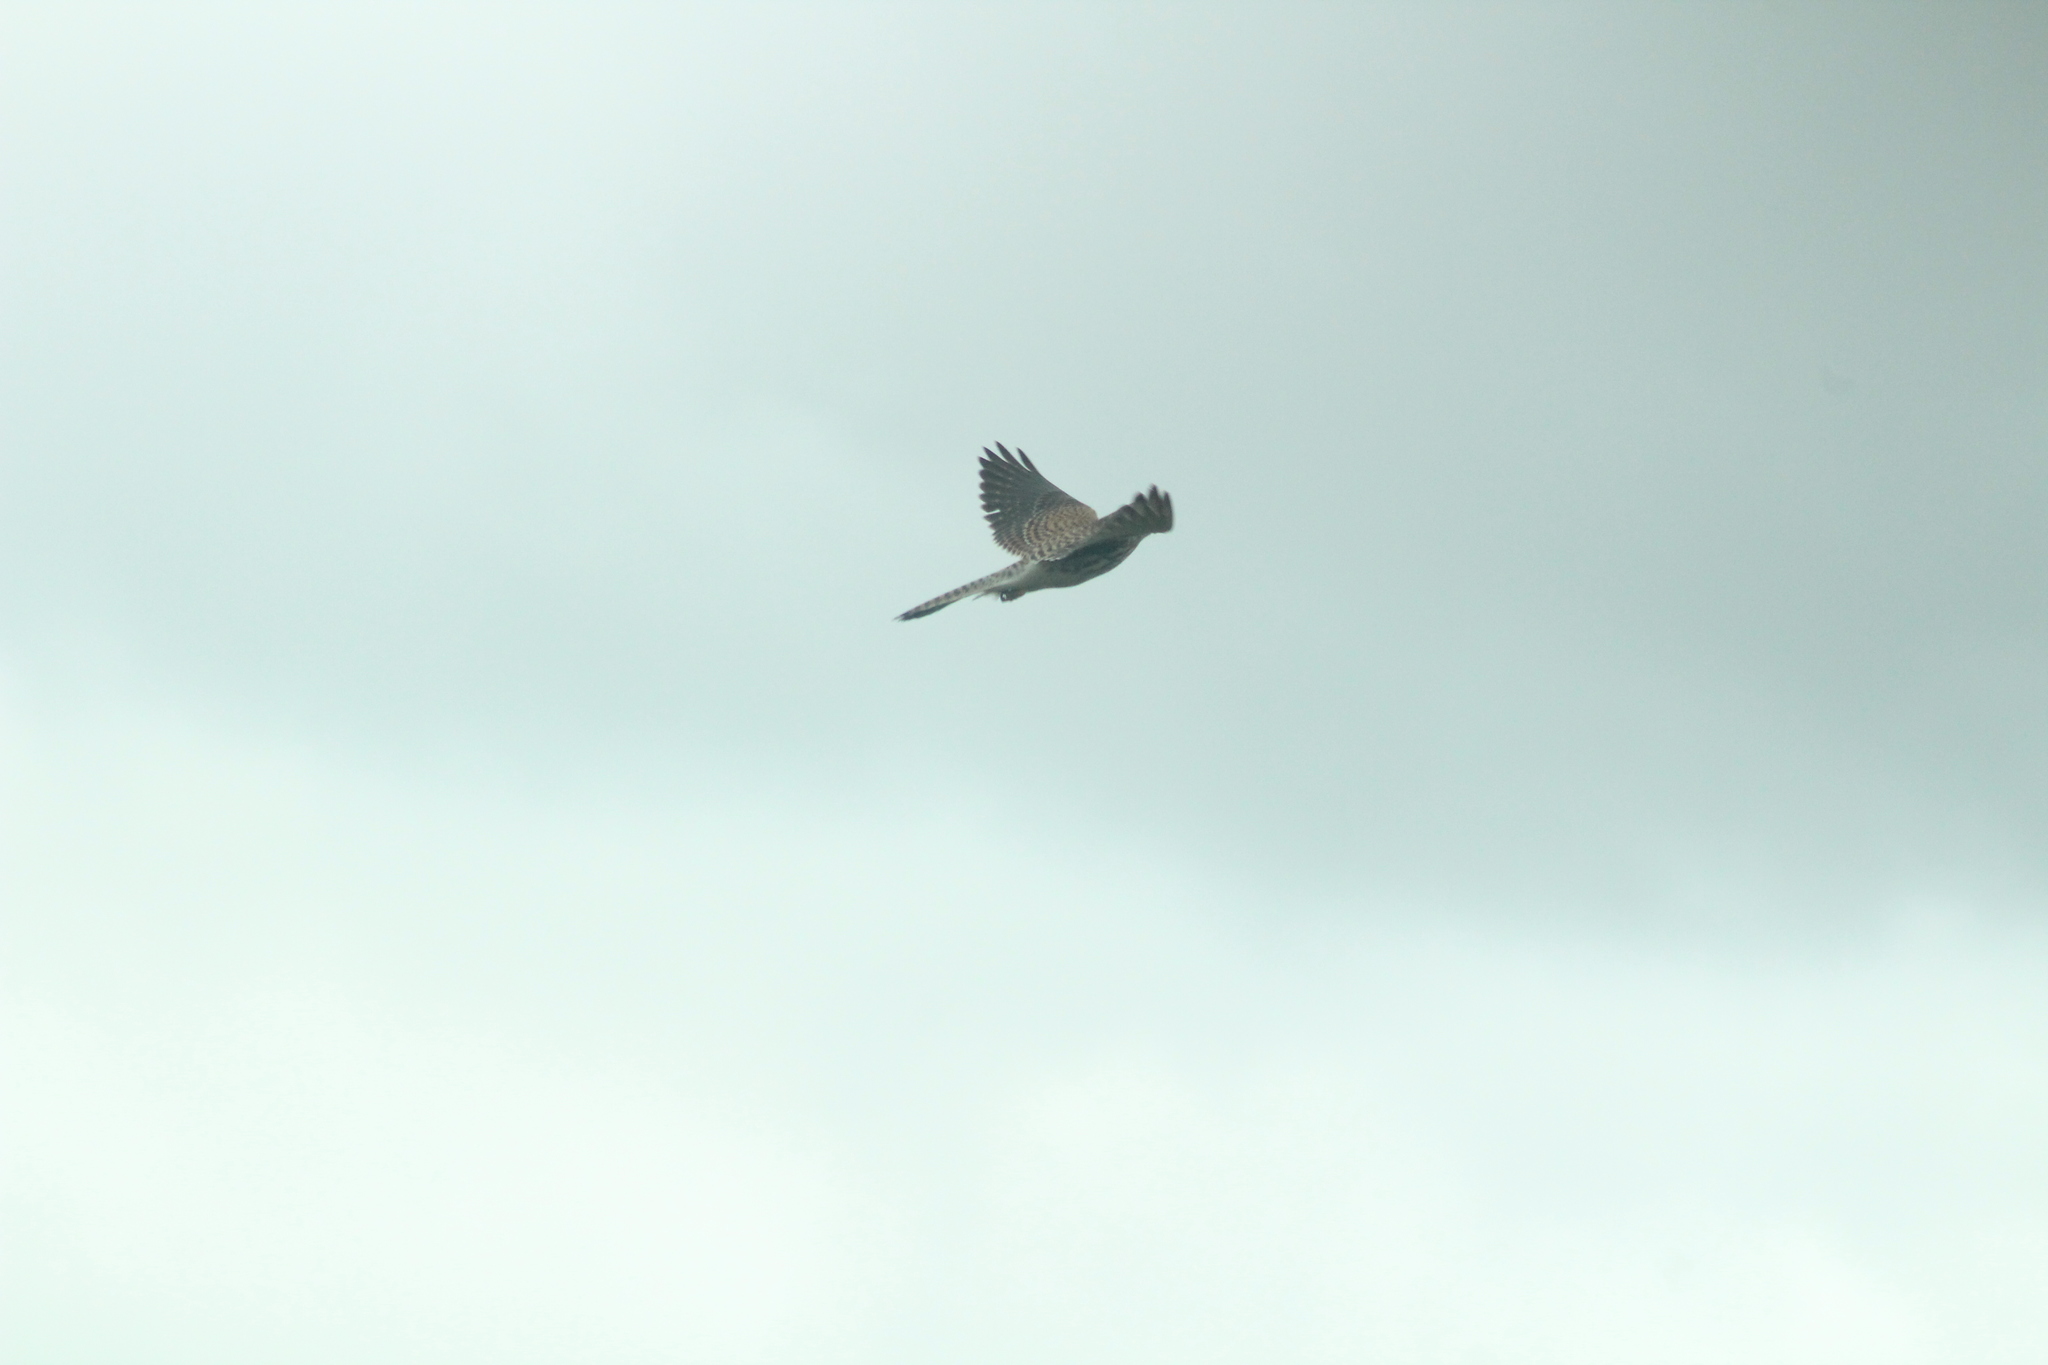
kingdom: Animalia
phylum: Chordata
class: Aves
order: Falconiformes
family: Falconidae
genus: Falco
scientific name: Falco tinnunculus
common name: Common kestrel
